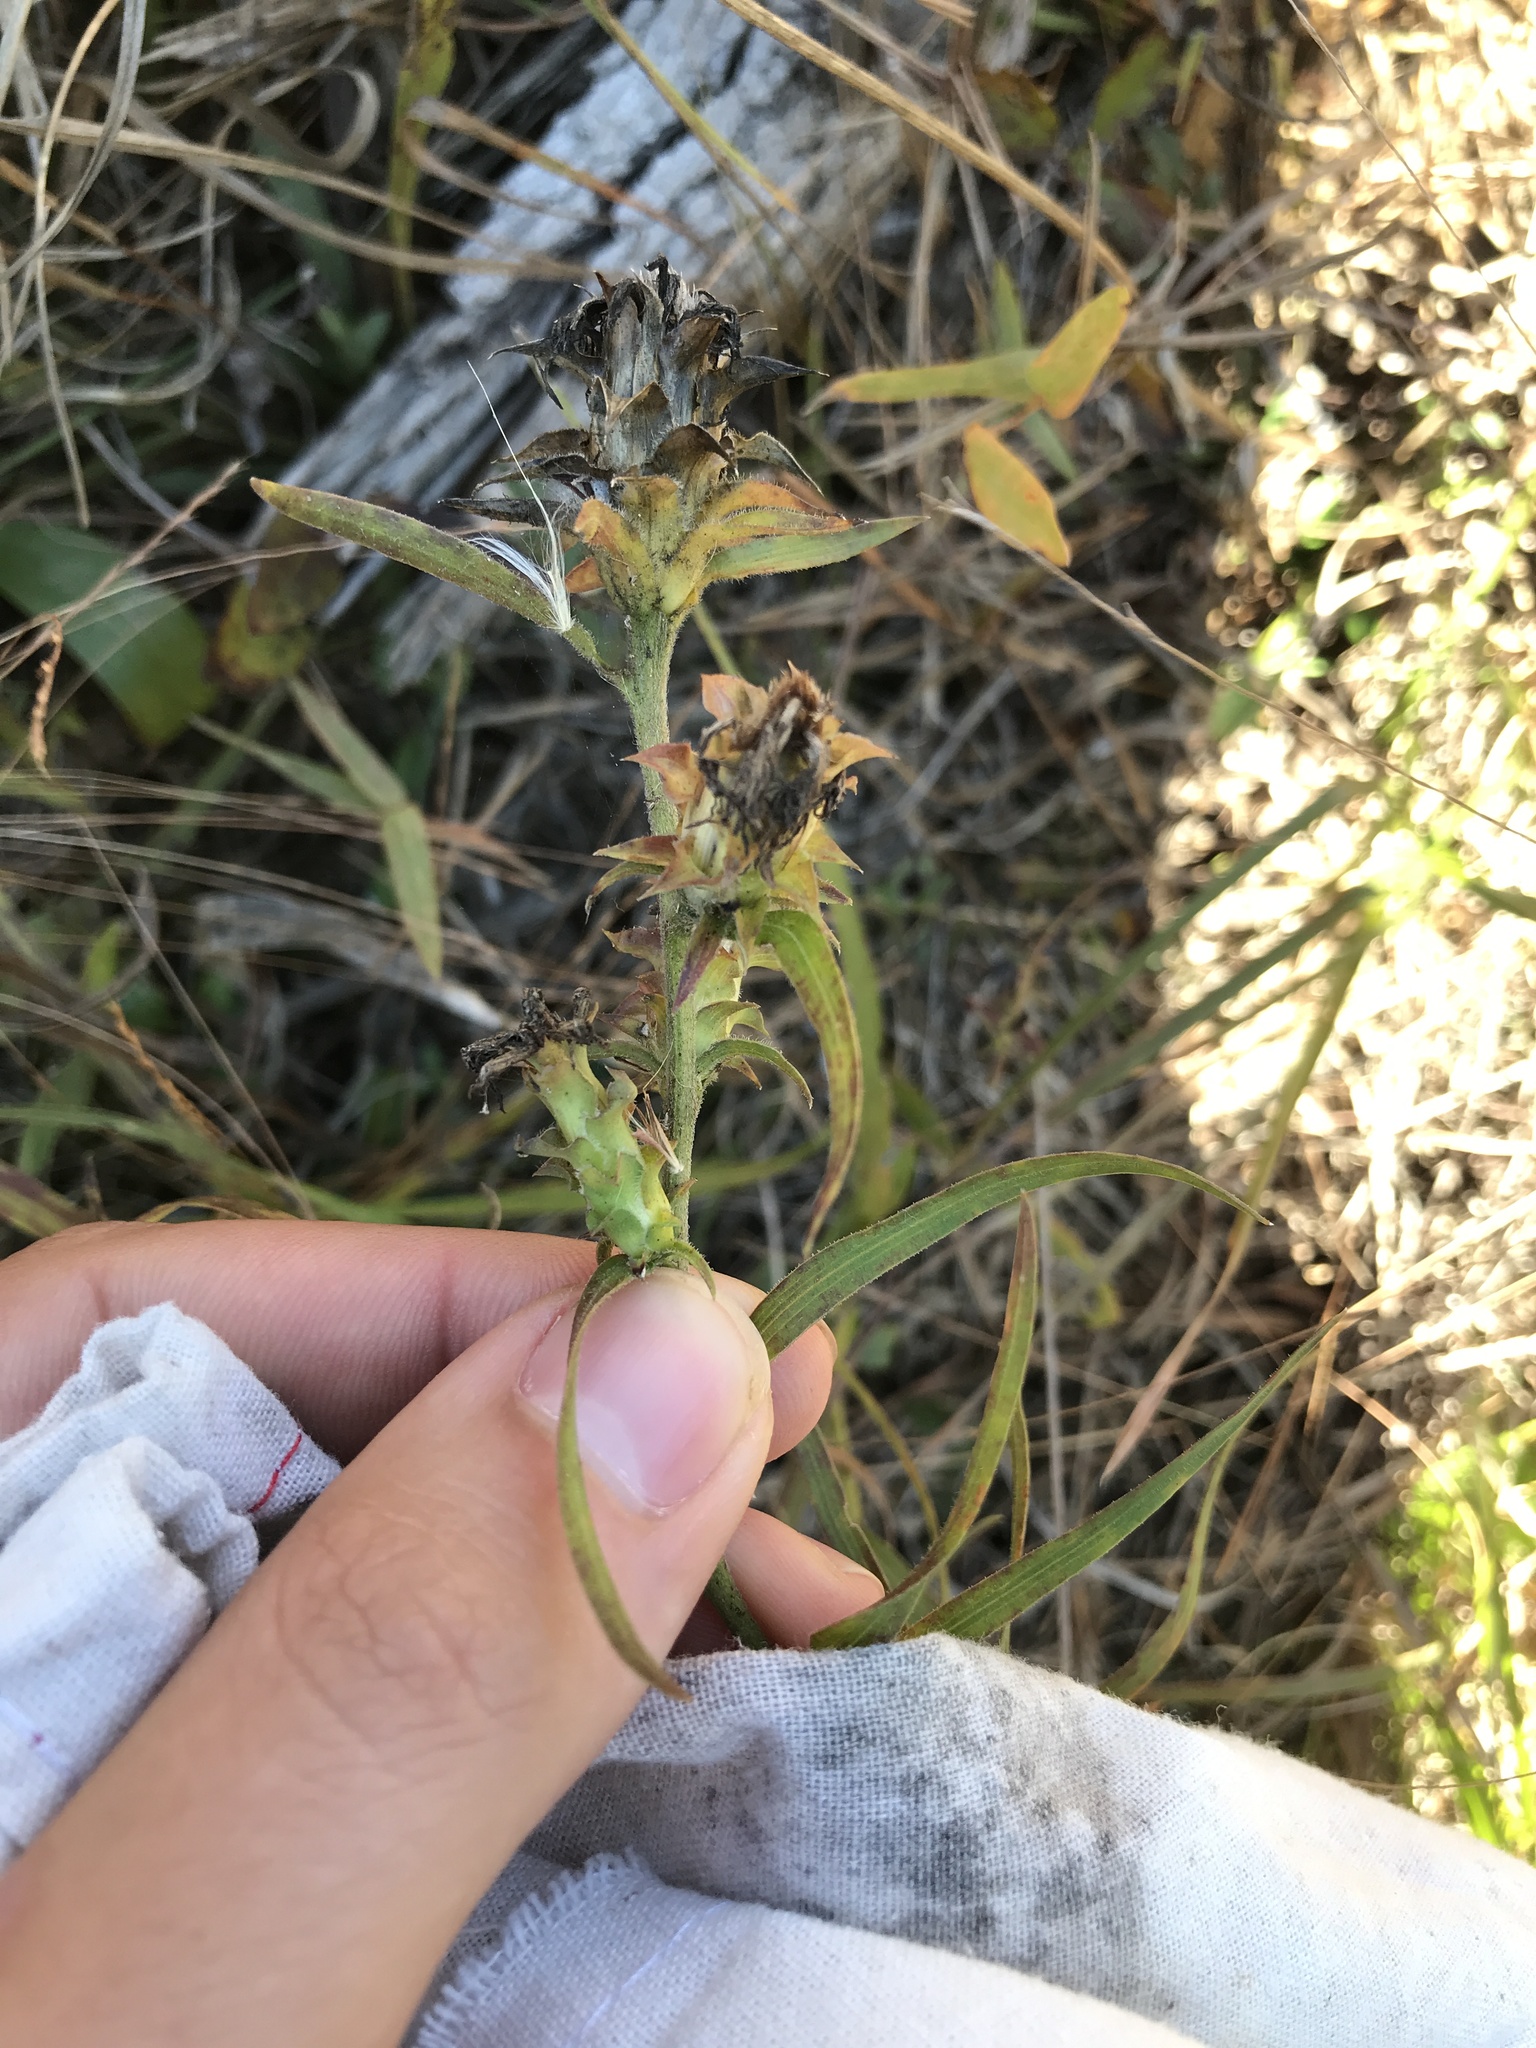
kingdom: Plantae
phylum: Tracheophyta
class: Magnoliopsida
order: Asterales
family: Asteraceae
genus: Liatris
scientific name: Liatris squarrosa
